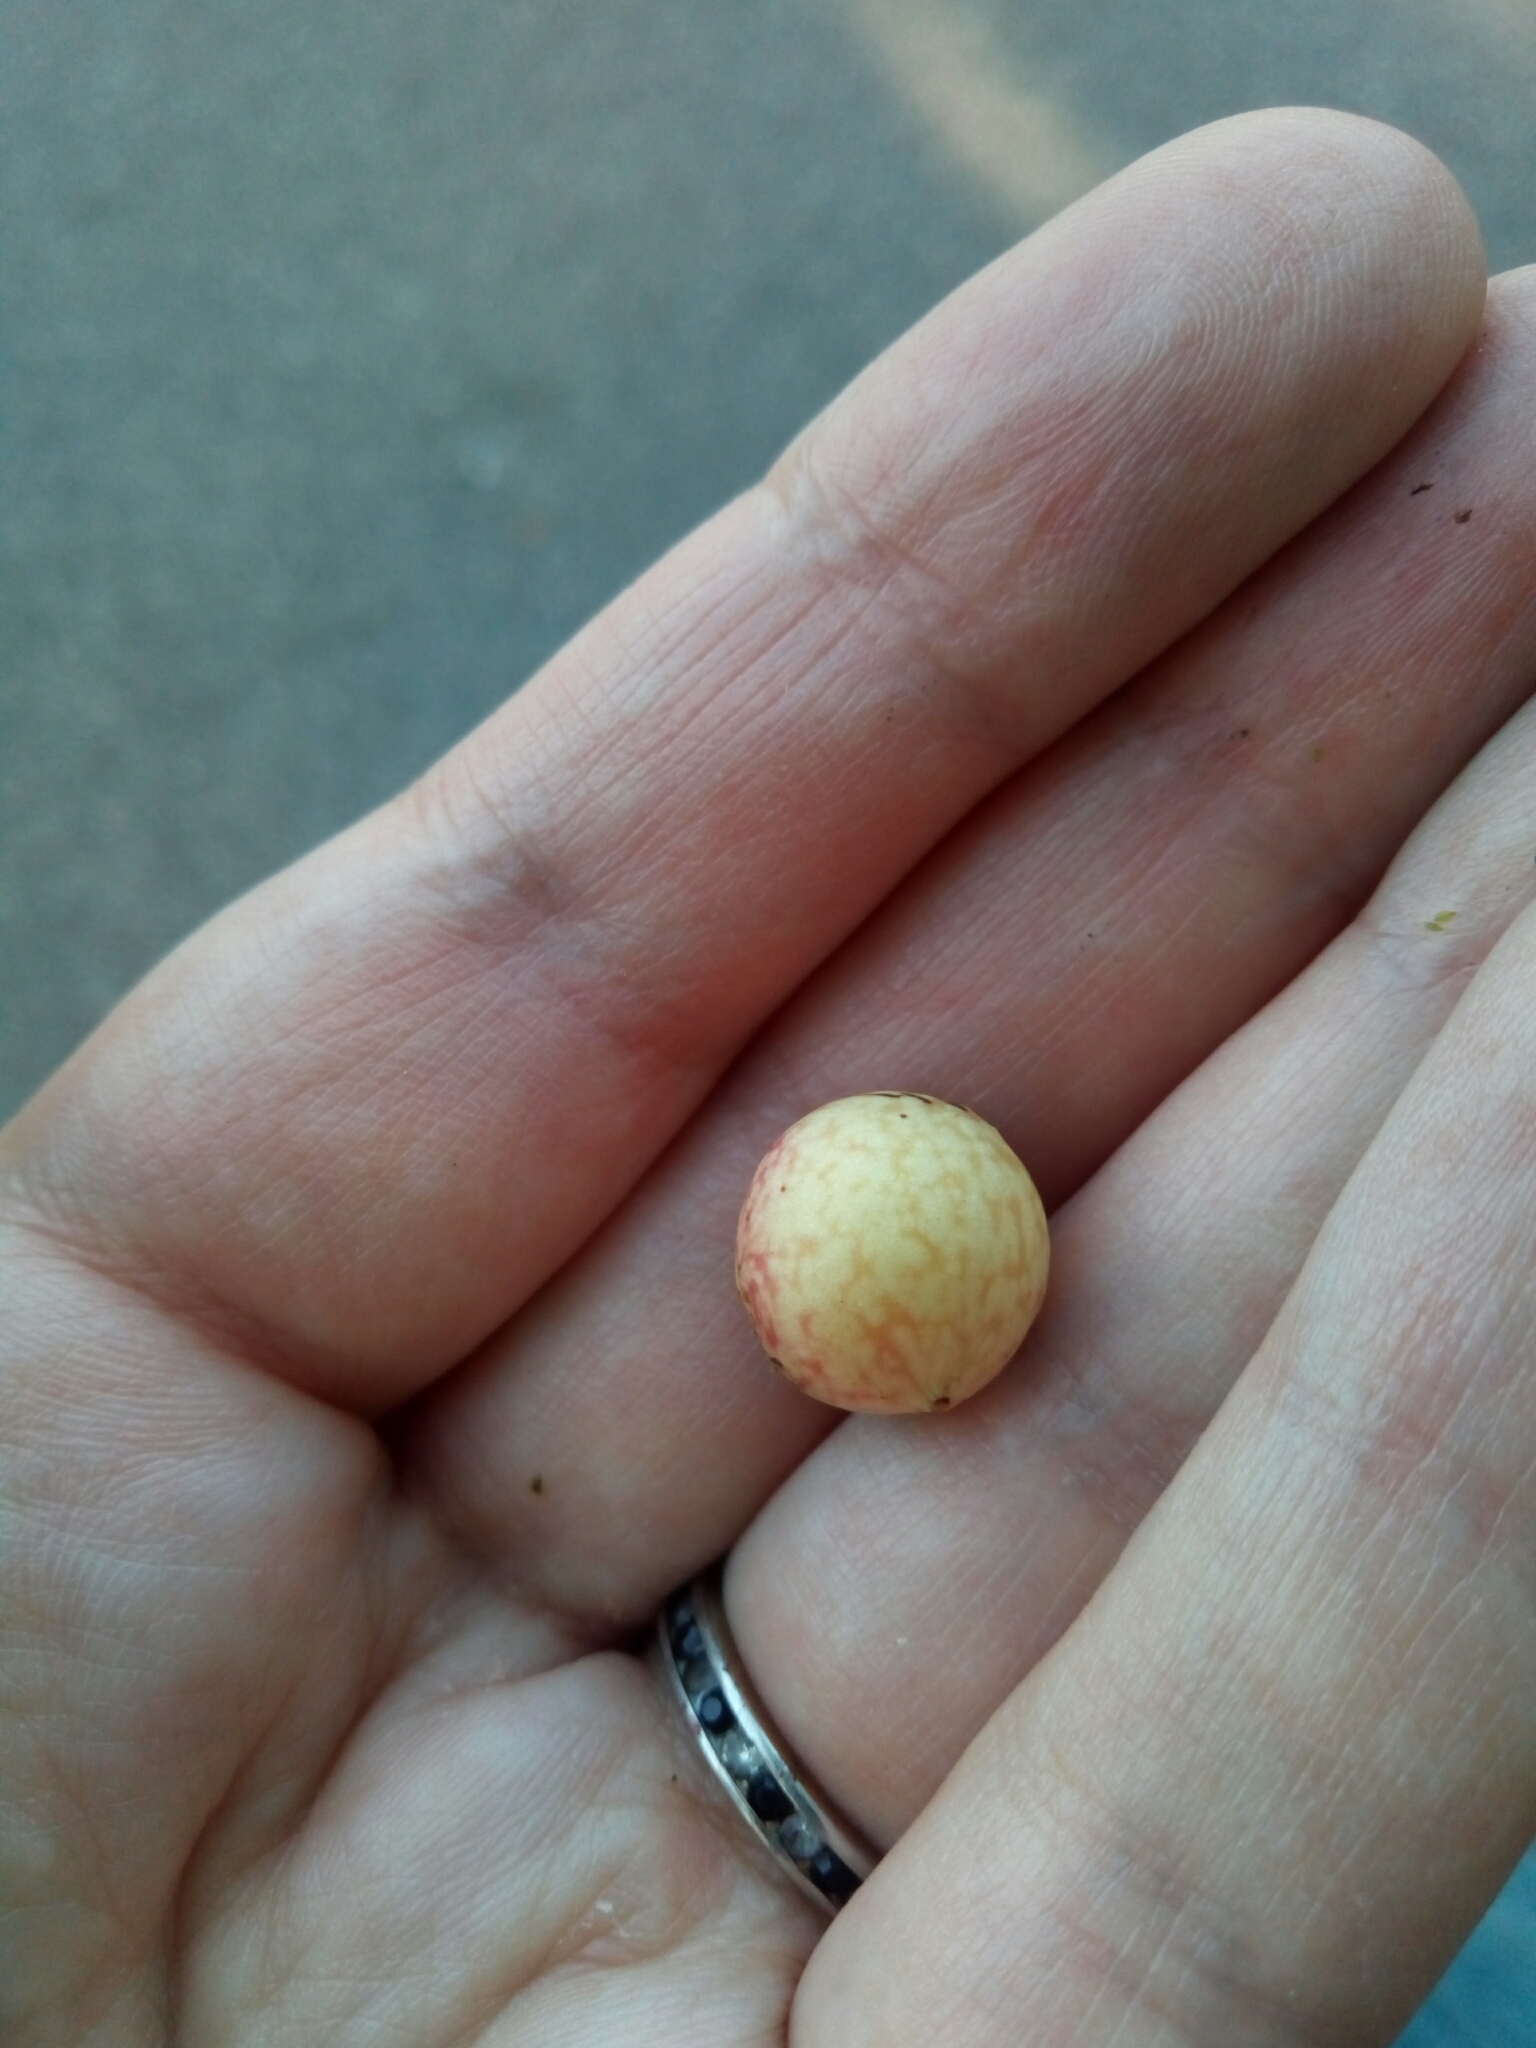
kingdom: Animalia
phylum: Arthropoda
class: Insecta
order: Hymenoptera
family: Cynipidae
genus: Amphibolips
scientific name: Amphibolips
